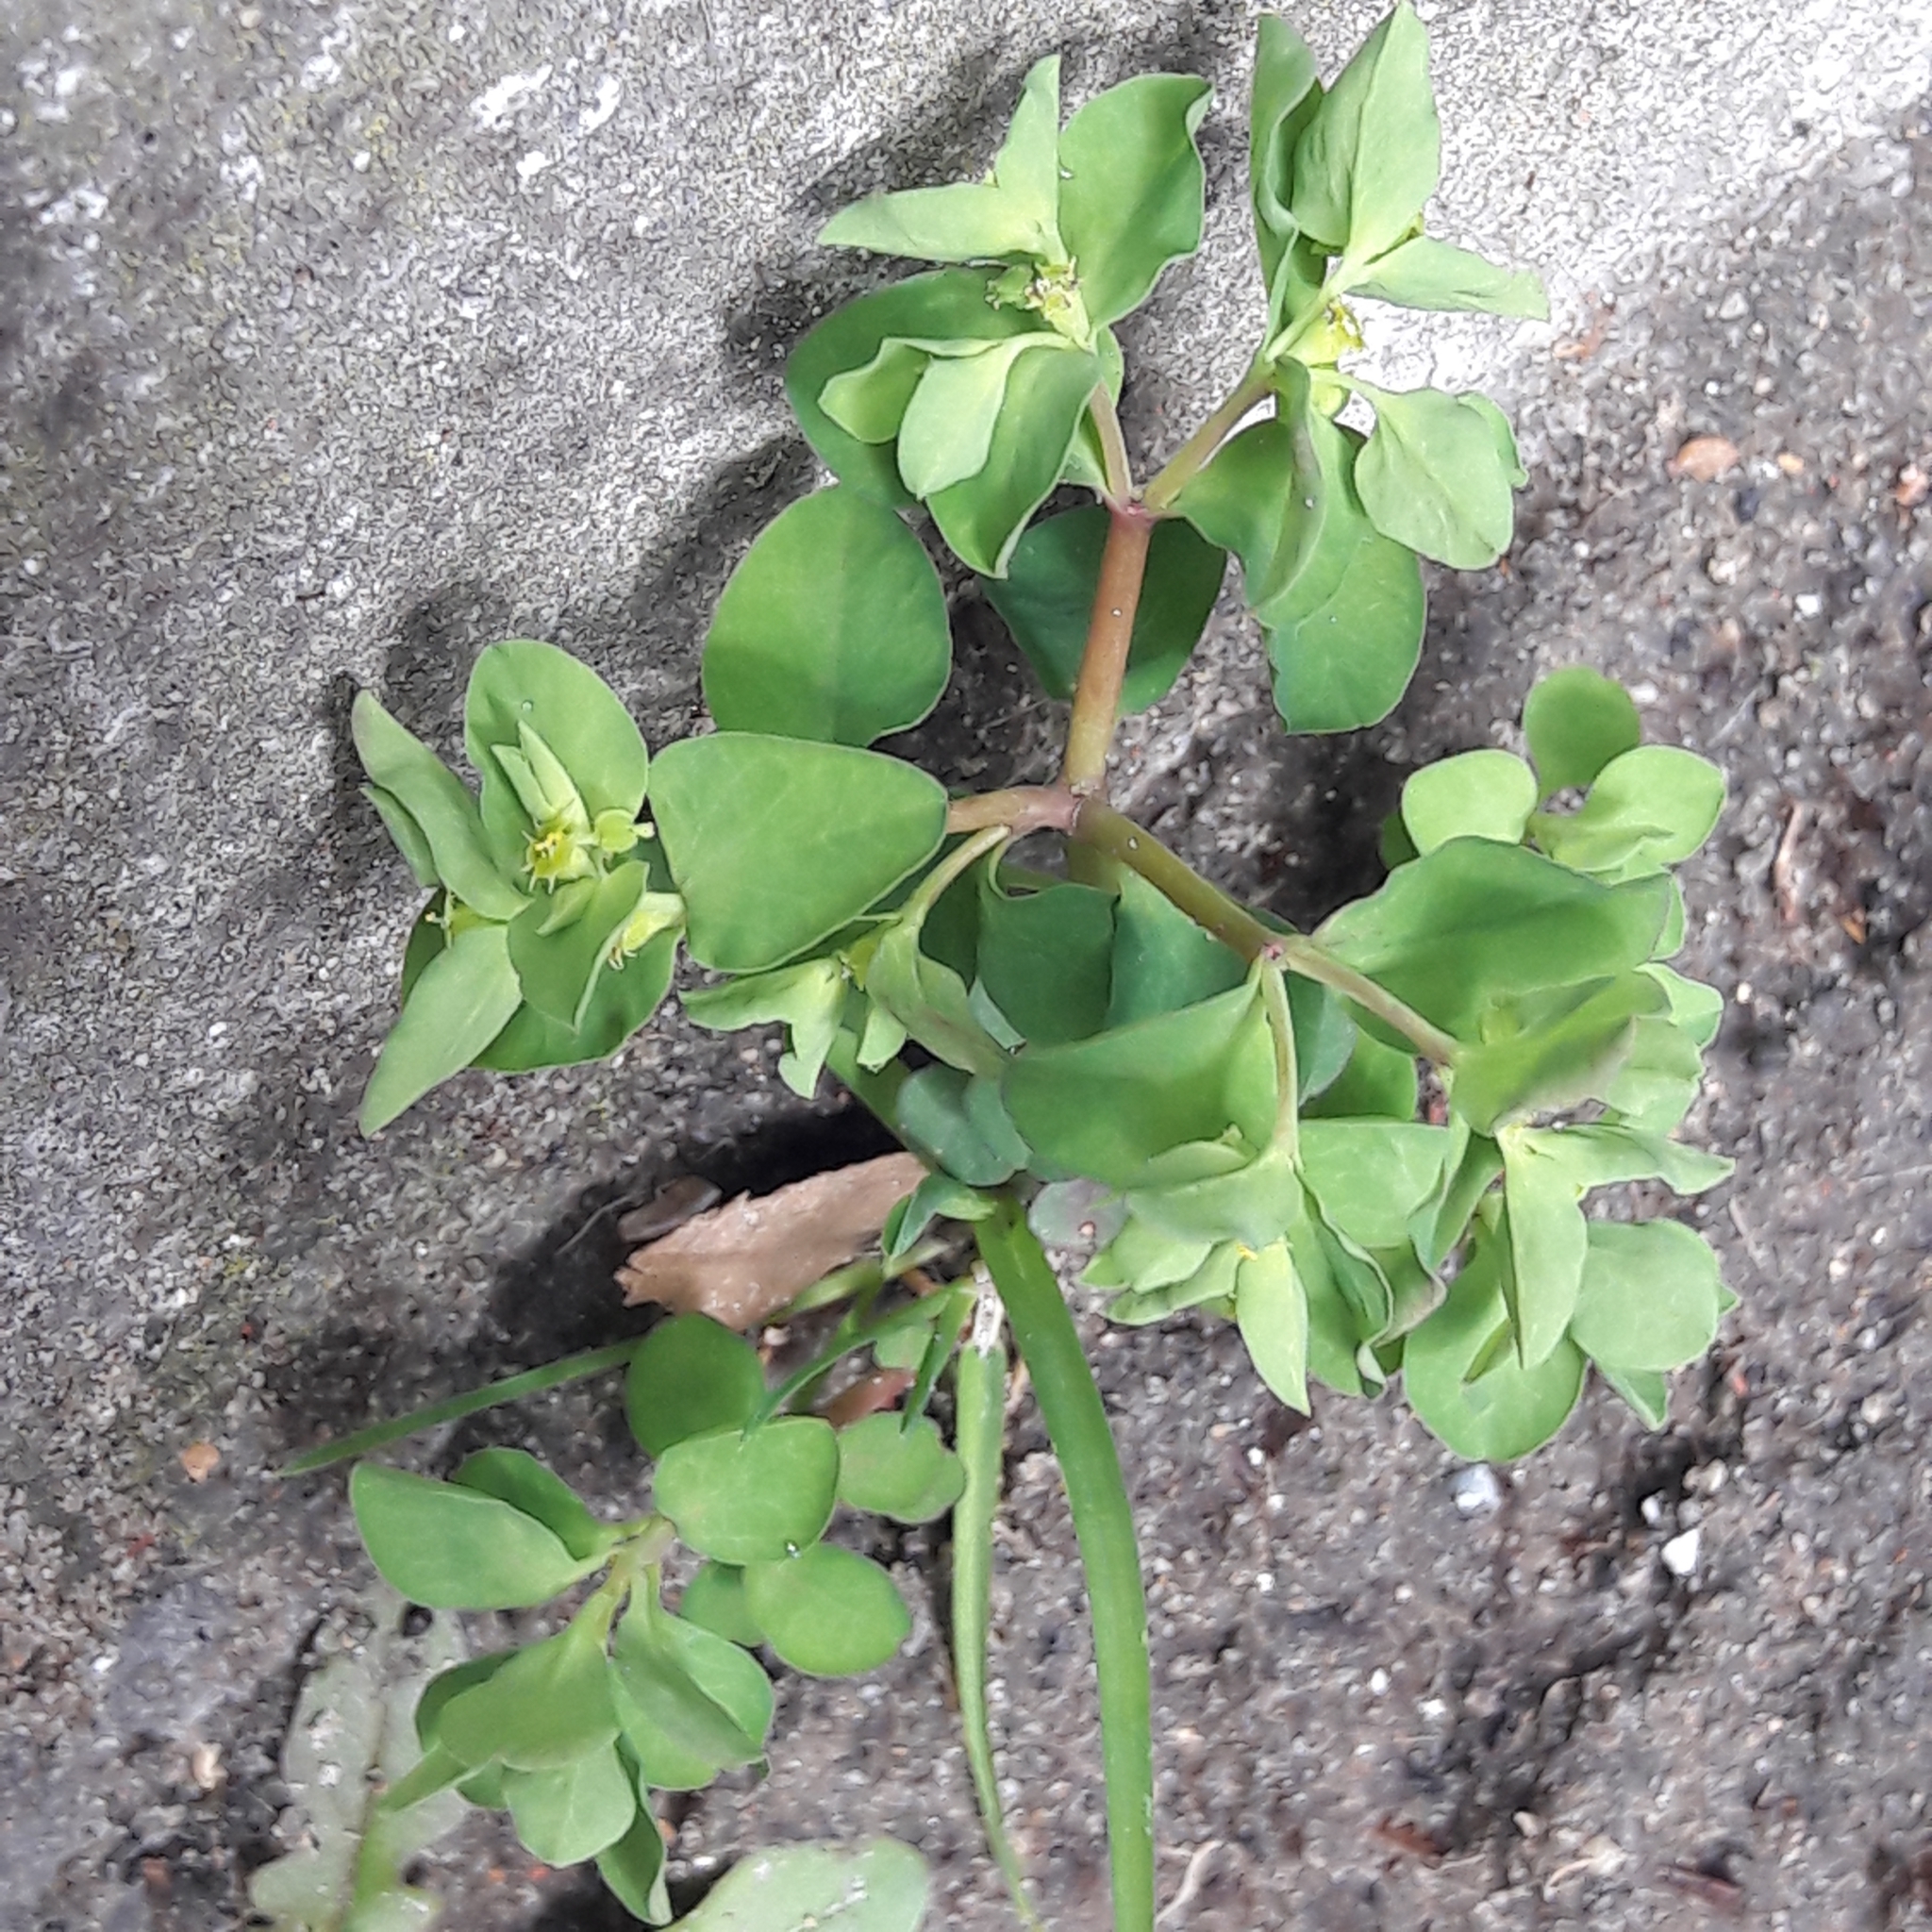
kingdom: Plantae
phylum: Tracheophyta
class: Magnoliopsida
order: Malpighiales
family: Euphorbiaceae
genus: Euphorbia
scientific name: Euphorbia peplus
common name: Petty spurge
